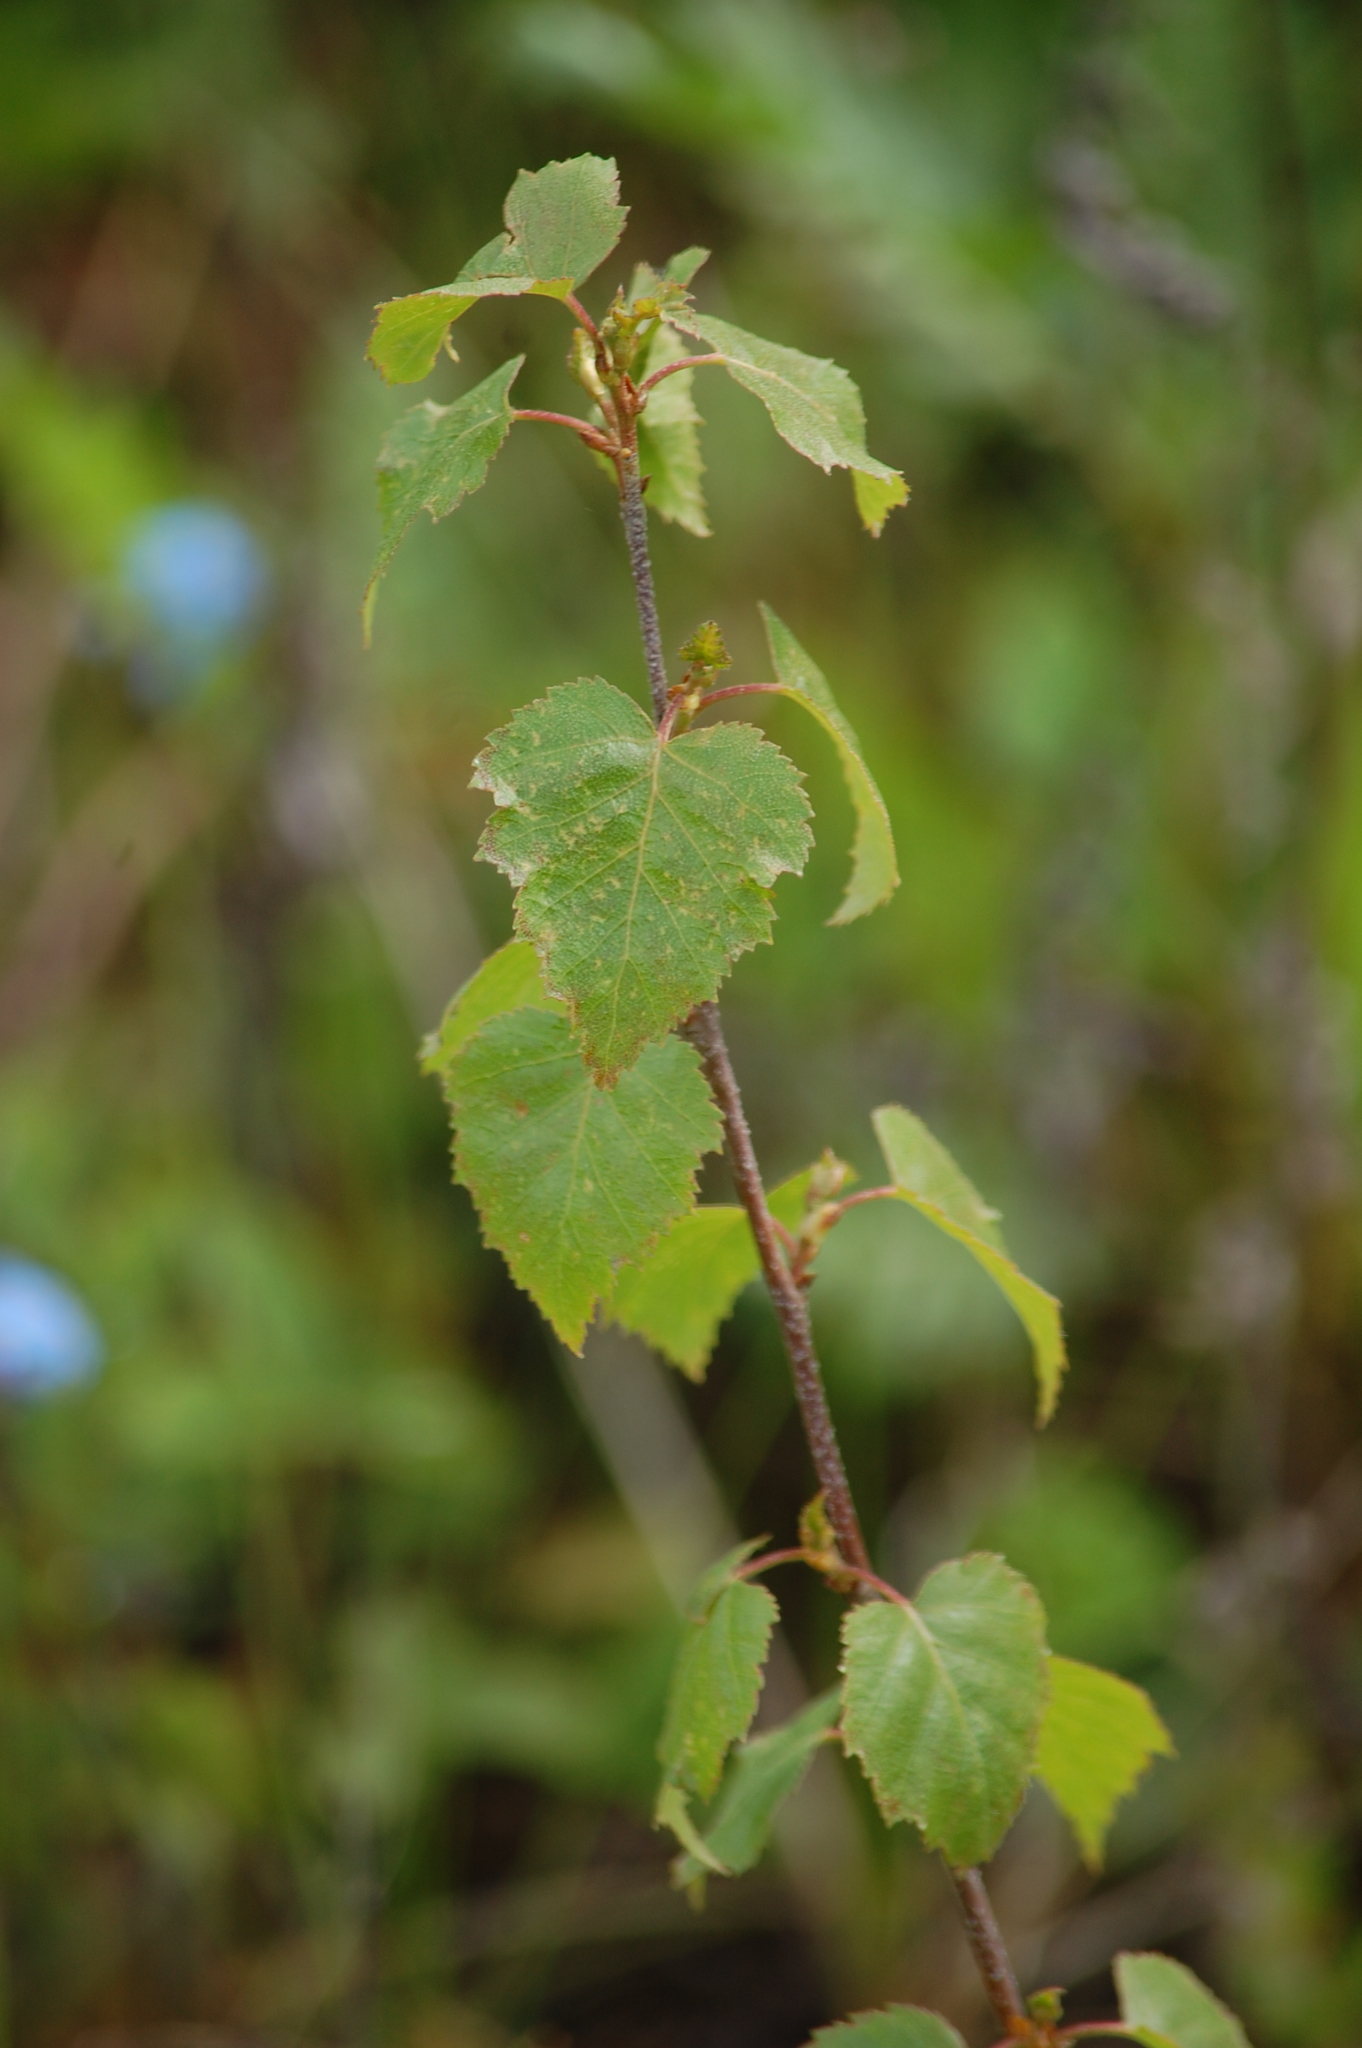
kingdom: Plantae
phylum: Tracheophyta
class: Magnoliopsida
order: Fagales
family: Betulaceae
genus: Betula
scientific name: Betula pendula
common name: Silver birch
